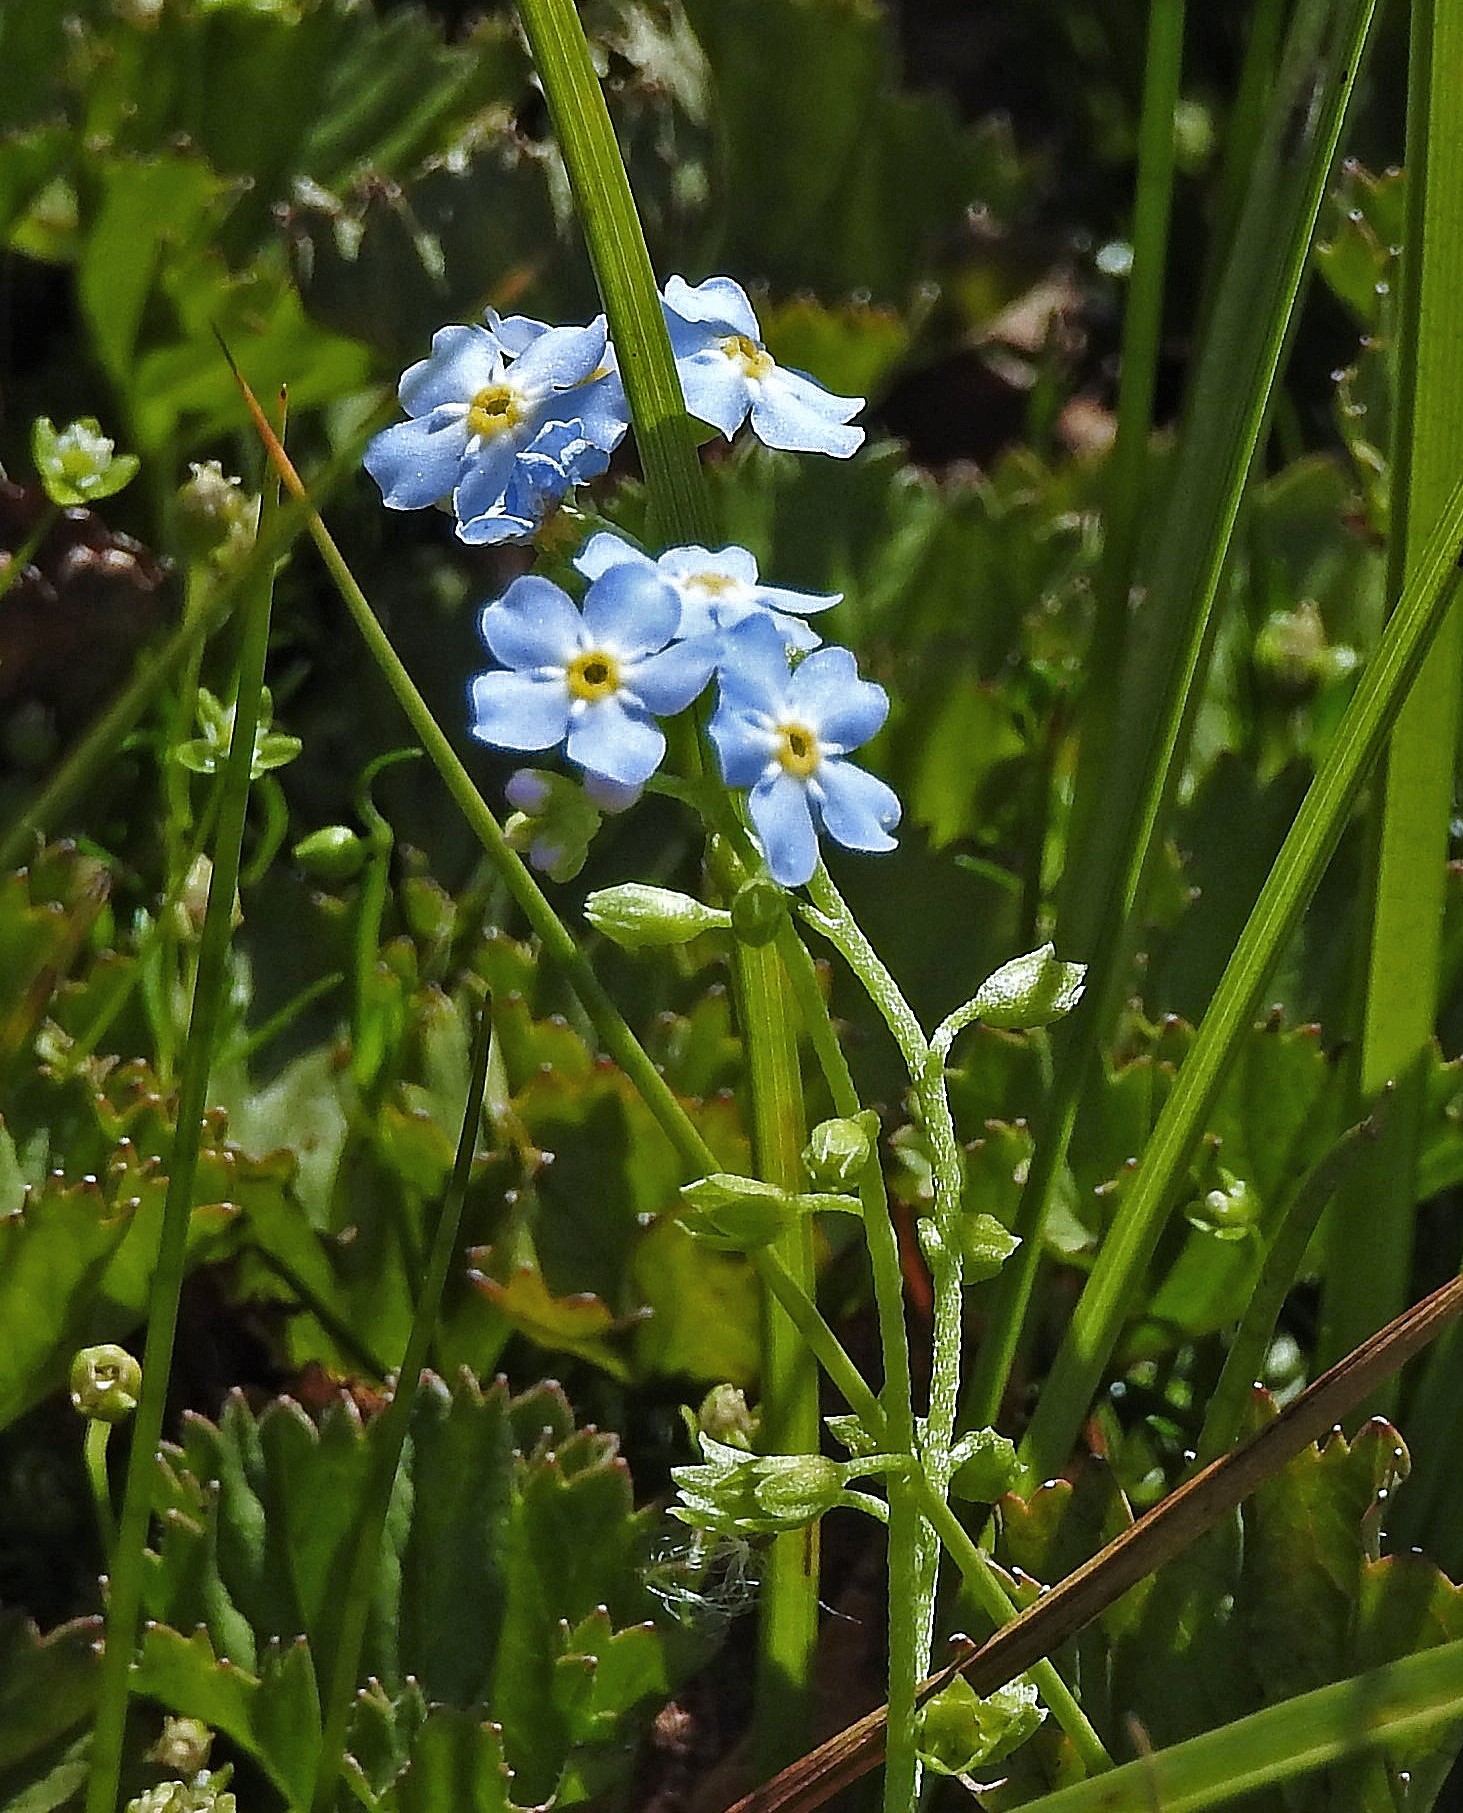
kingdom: Plantae
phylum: Tracheophyta
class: Magnoliopsida
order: Boraginales
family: Boraginaceae
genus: Myosotis
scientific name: Myosotis sylvatica
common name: Wood forget-me-not
